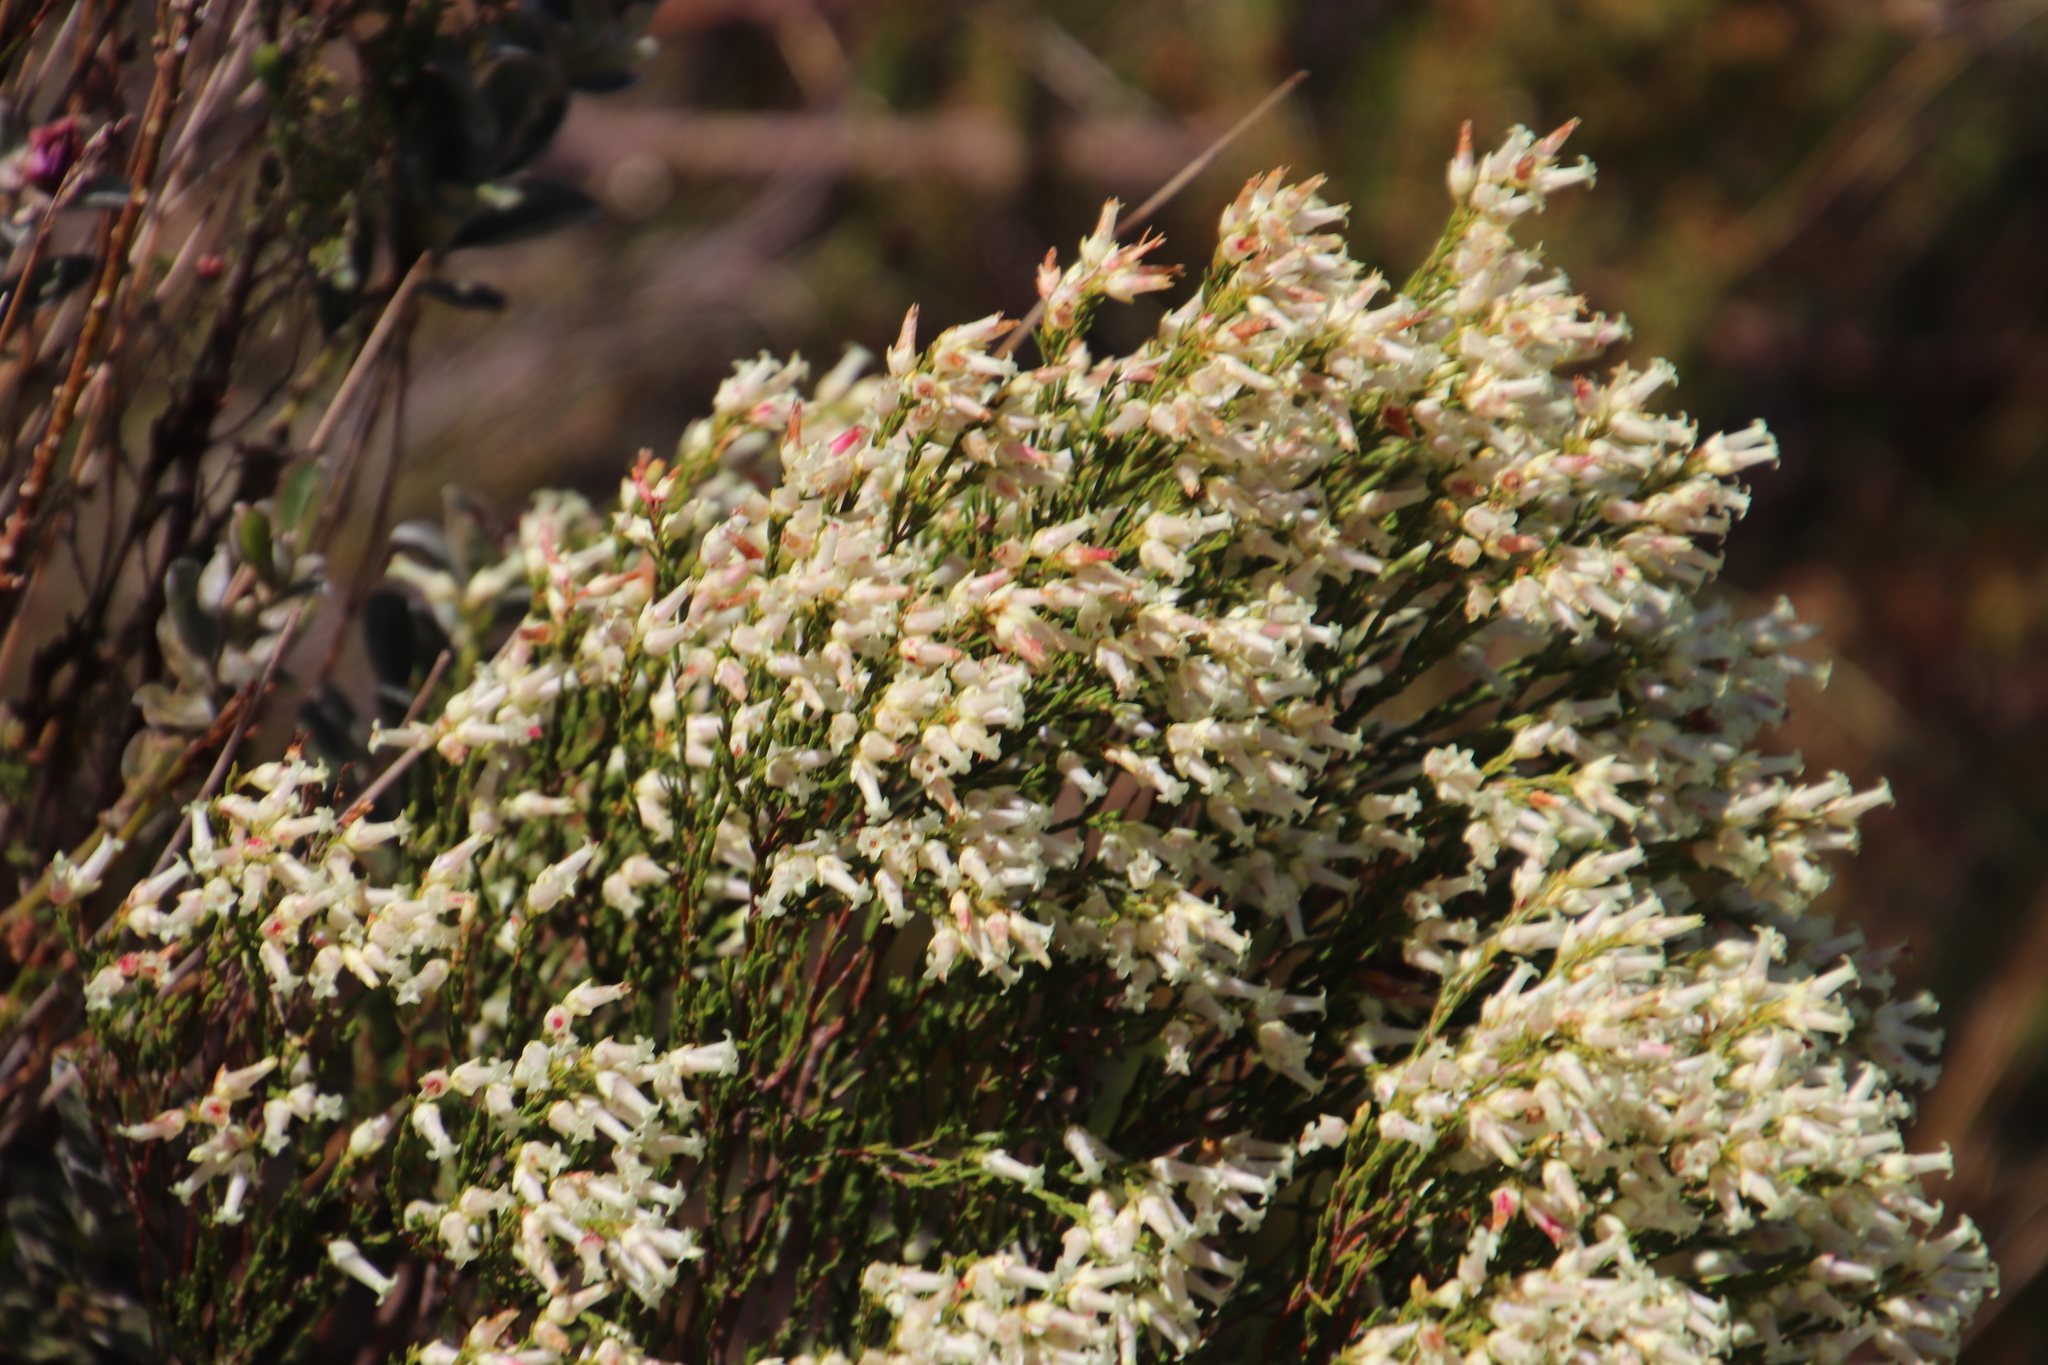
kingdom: Plantae
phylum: Tracheophyta
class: Magnoliopsida
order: Ericales
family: Ericaceae
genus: Erica
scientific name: Erica lutea
